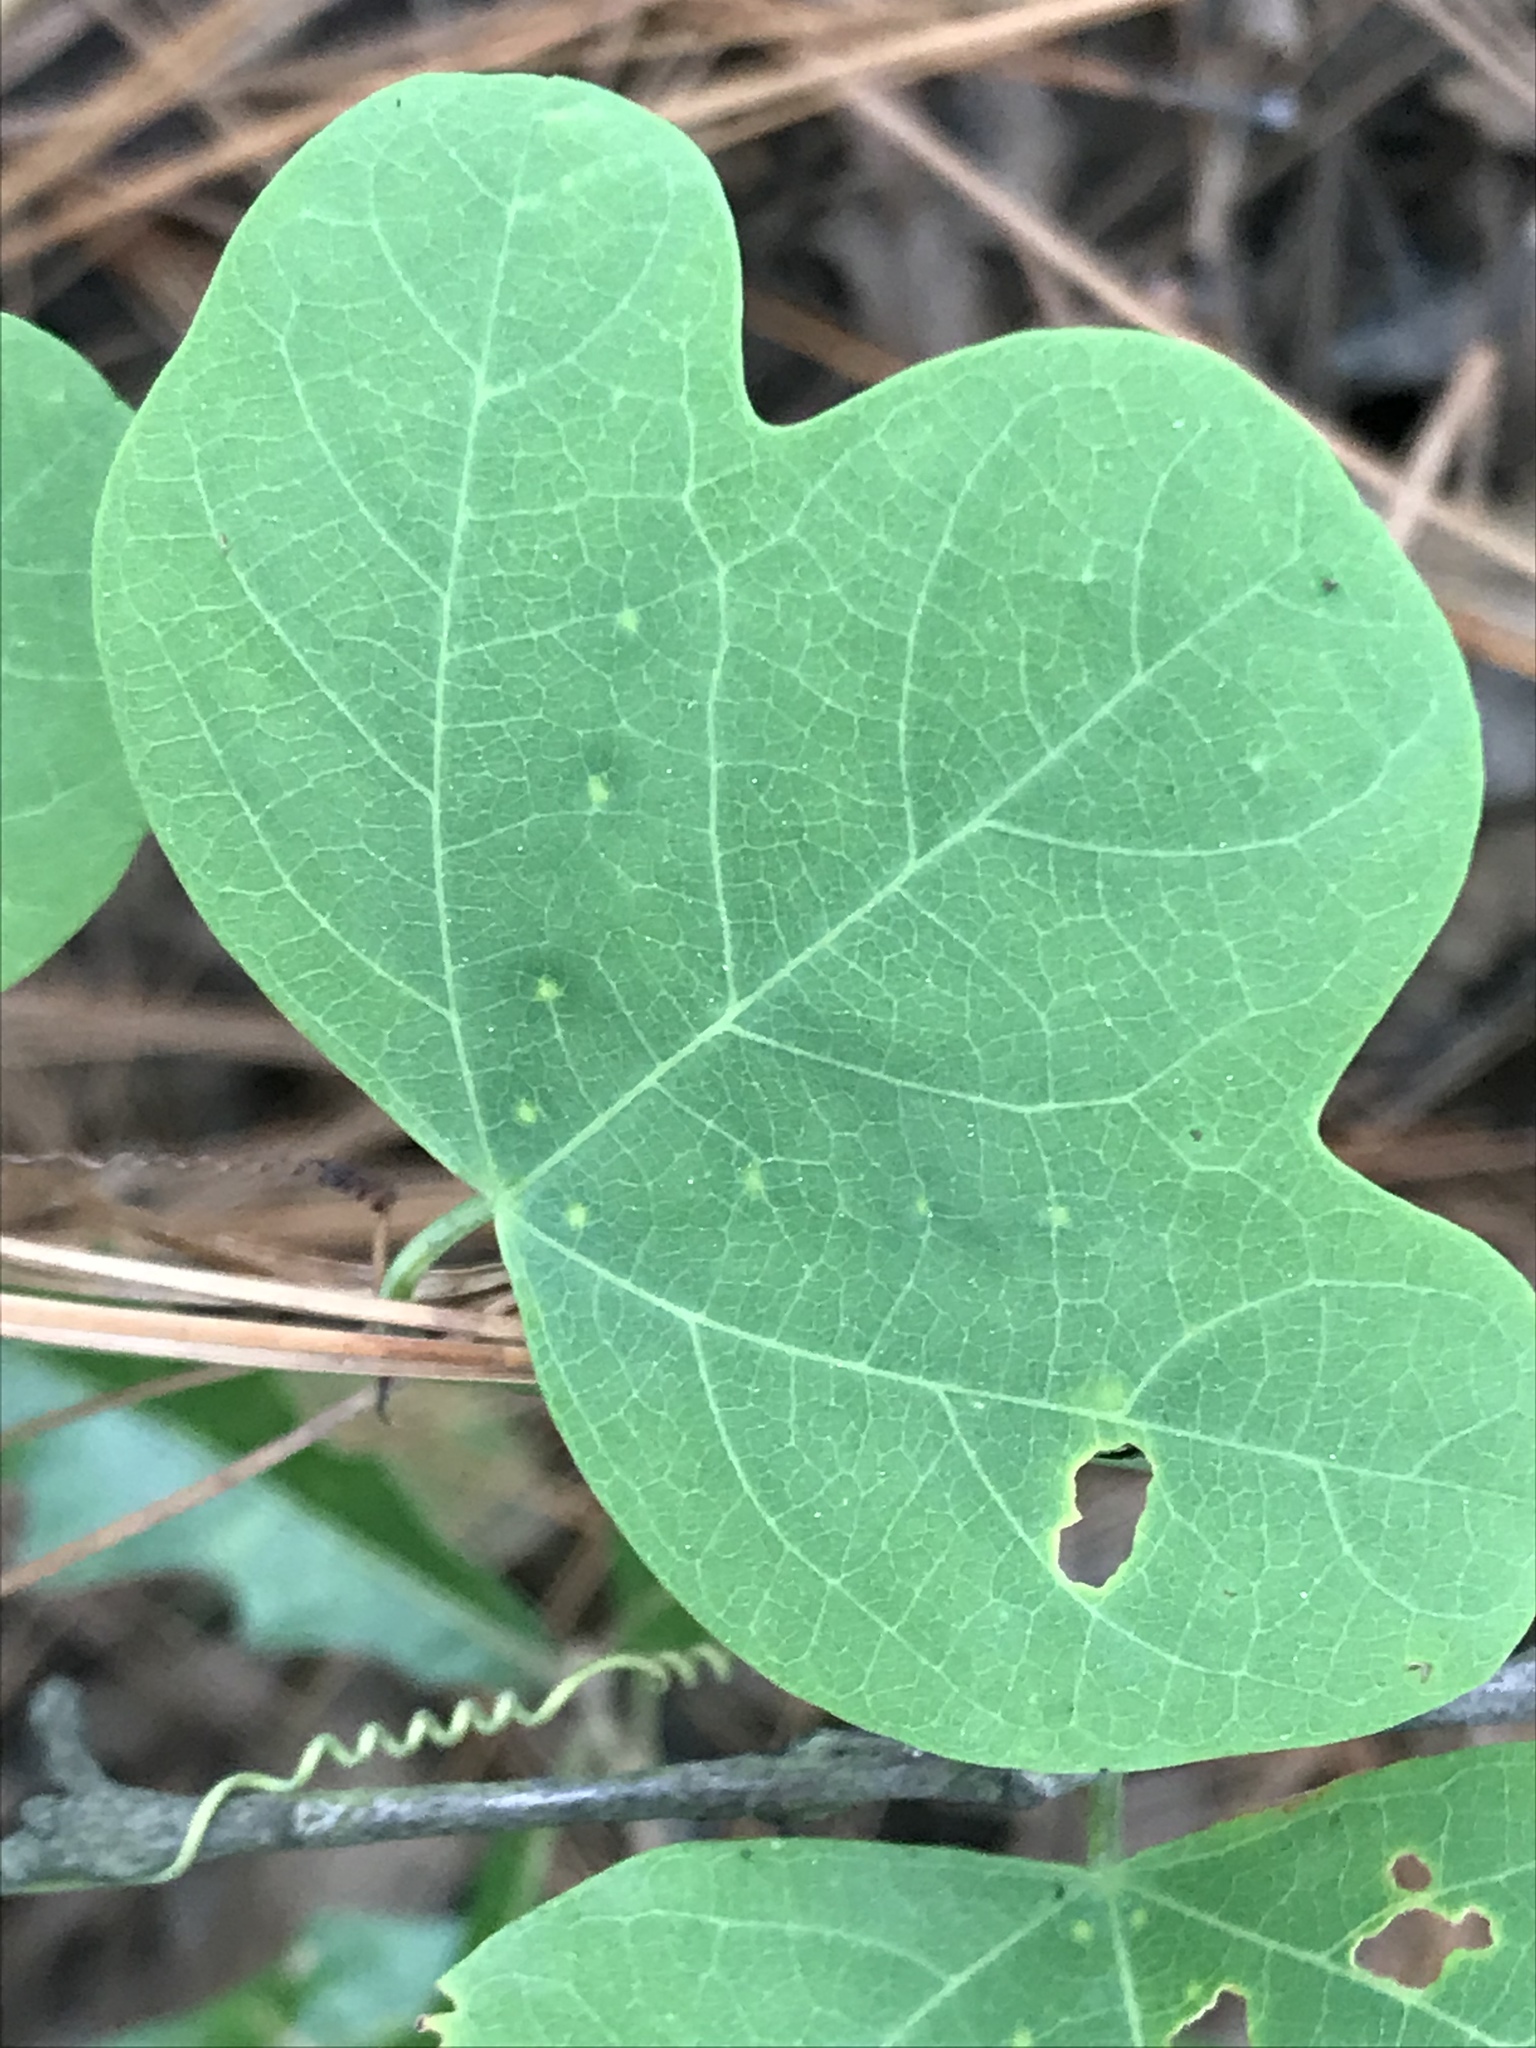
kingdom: Plantae
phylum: Tracheophyta
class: Magnoliopsida
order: Malpighiales
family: Passifloraceae
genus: Passiflora
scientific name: Passiflora affinis
